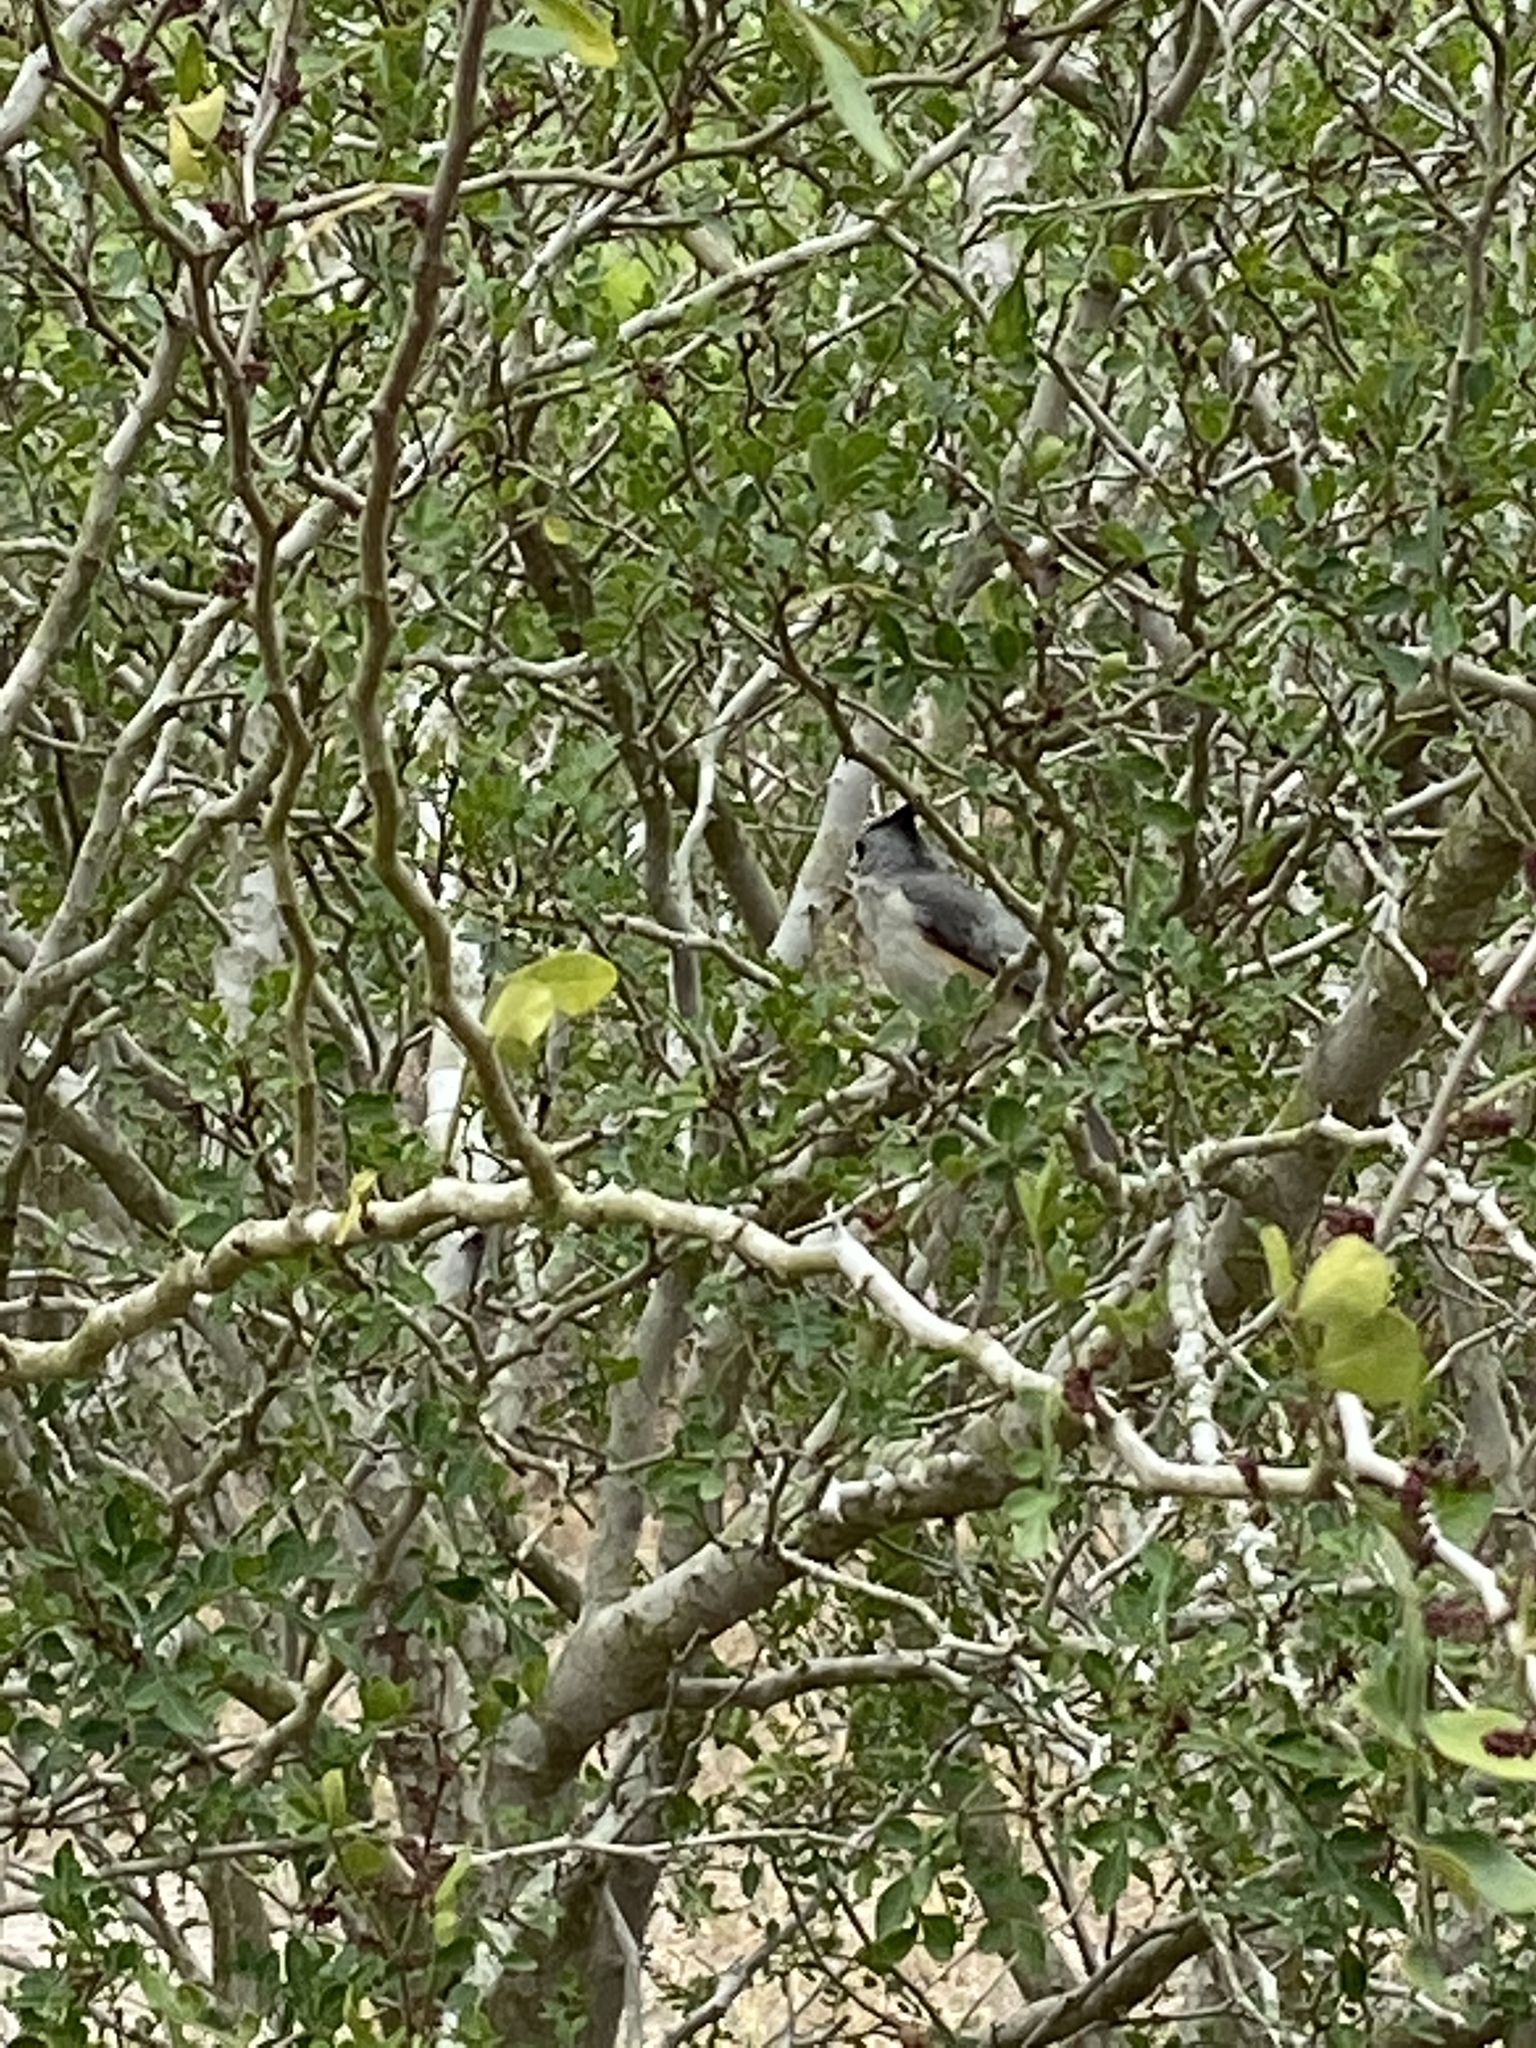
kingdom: Animalia
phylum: Chordata
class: Aves
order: Passeriformes
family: Paridae
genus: Baeolophus
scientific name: Baeolophus atricristatus
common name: Black-crested titmouse
